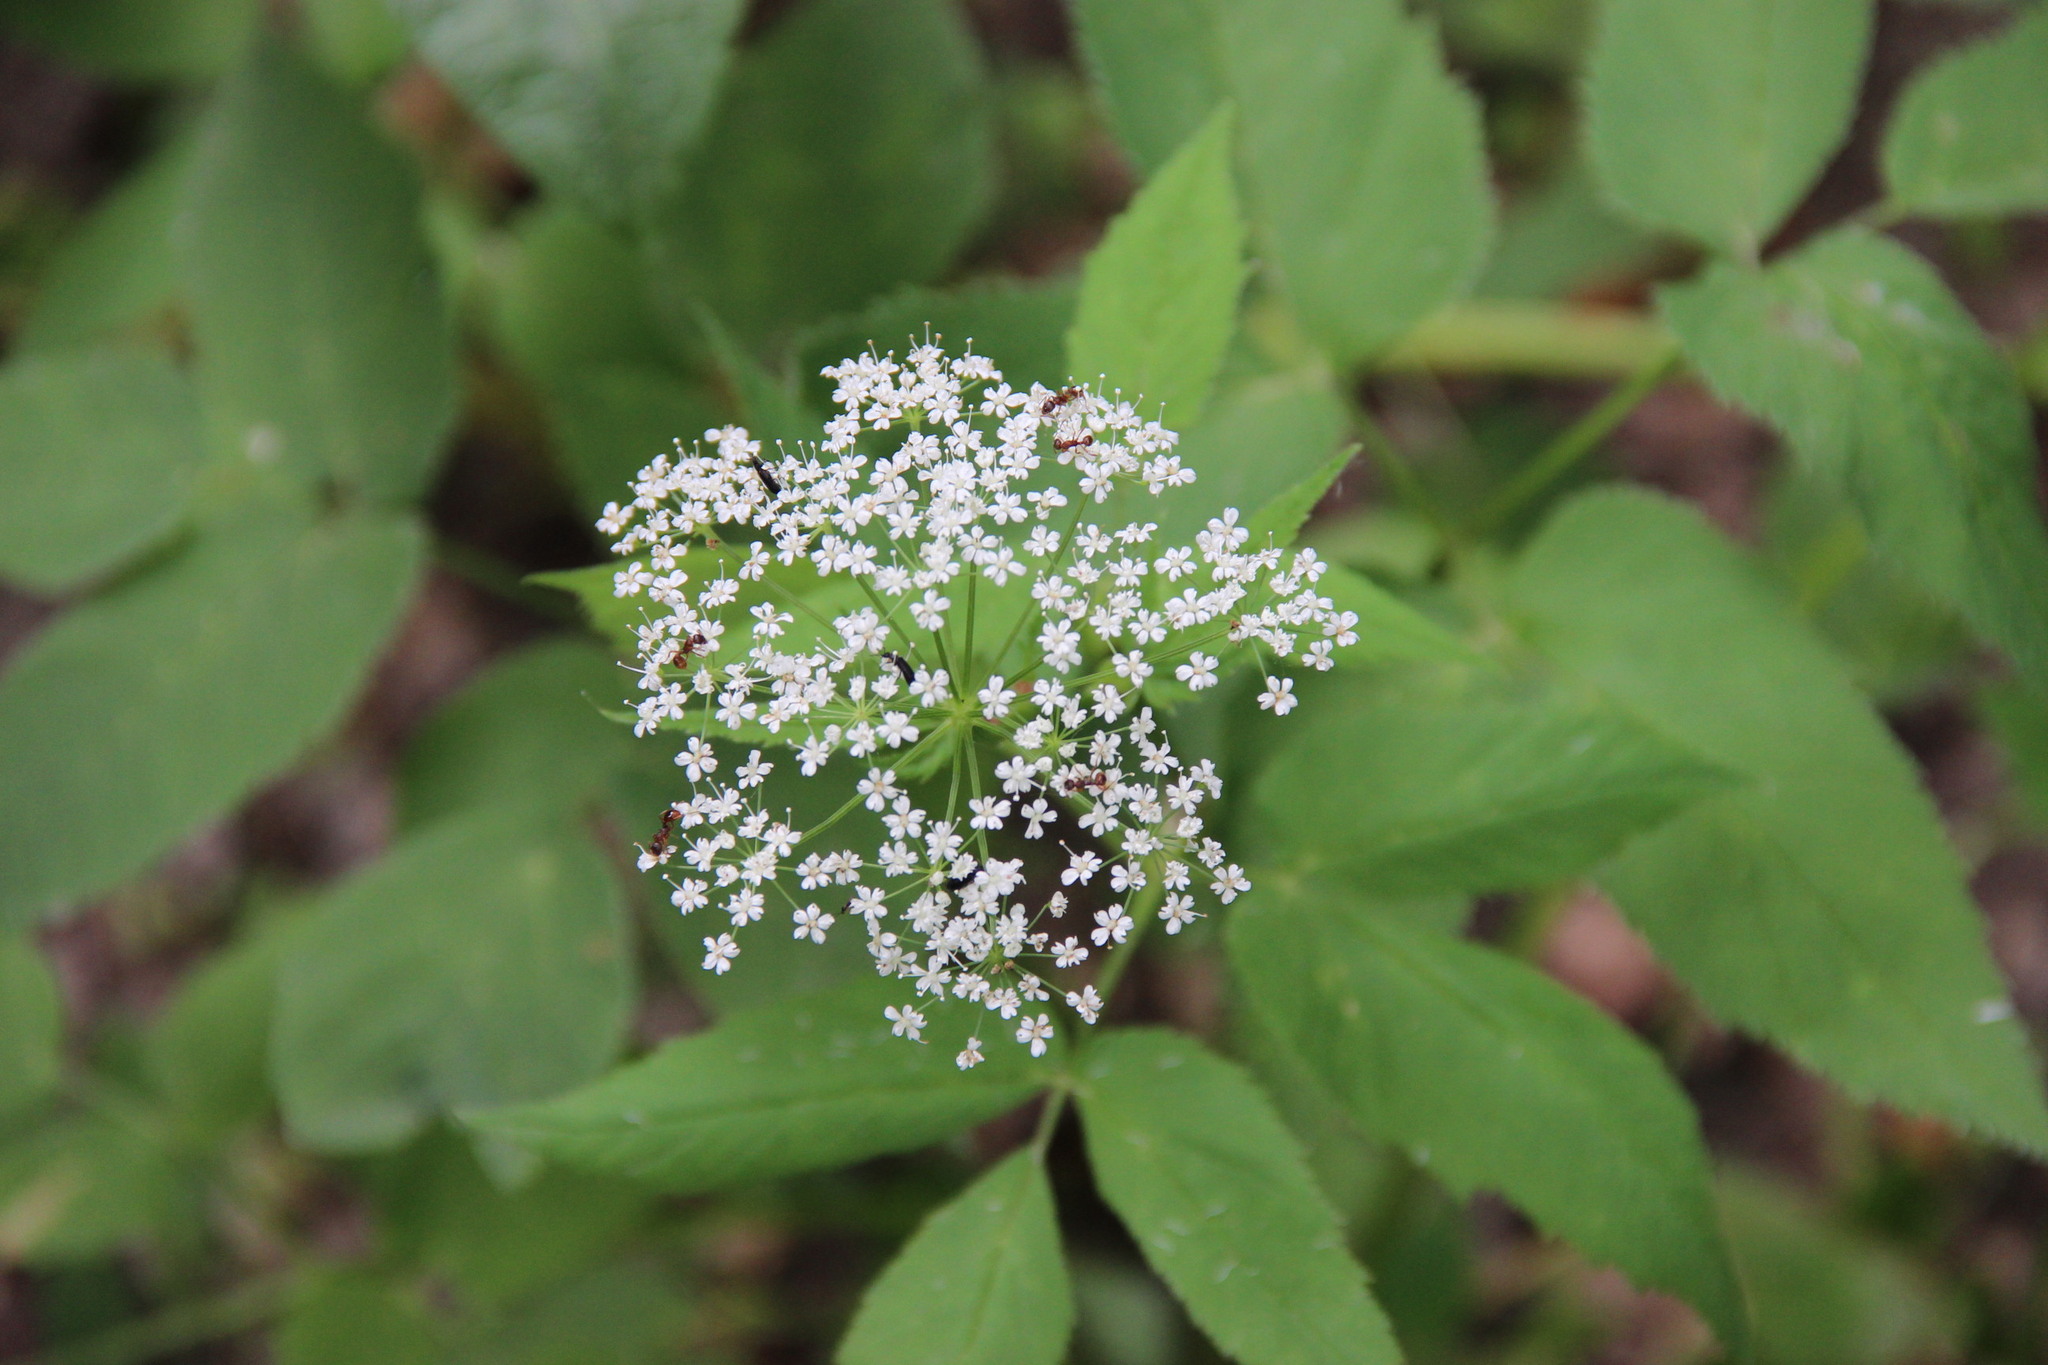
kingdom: Plantae
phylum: Tracheophyta
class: Magnoliopsida
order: Apiales
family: Apiaceae
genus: Aegopodium
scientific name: Aegopodium podagraria
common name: Ground-elder
